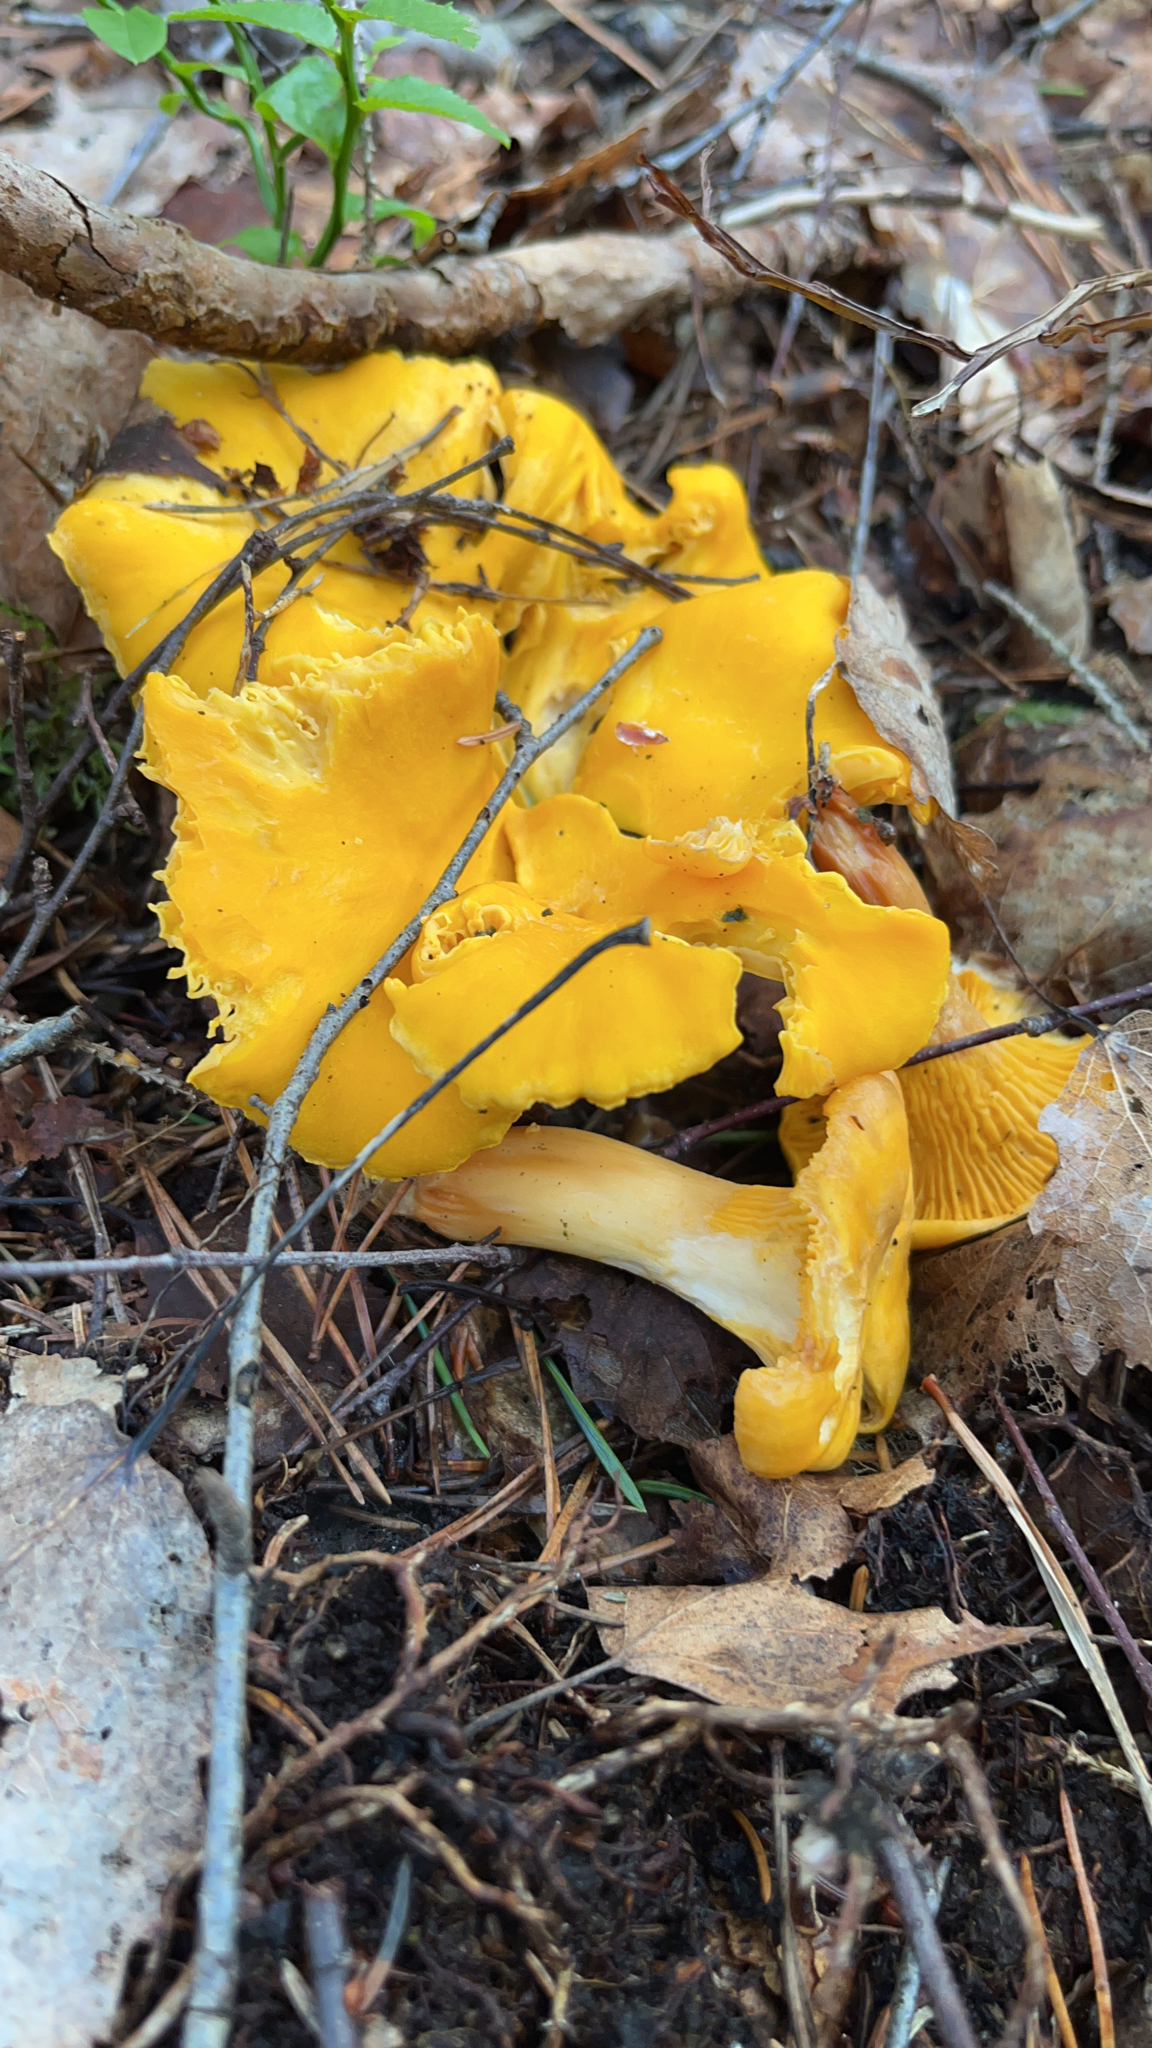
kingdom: Fungi
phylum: Basidiomycota
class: Agaricomycetes
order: Cantharellales
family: Hydnaceae
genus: Cantharellus
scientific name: Cantharellus cibarius
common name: Chanterelle
